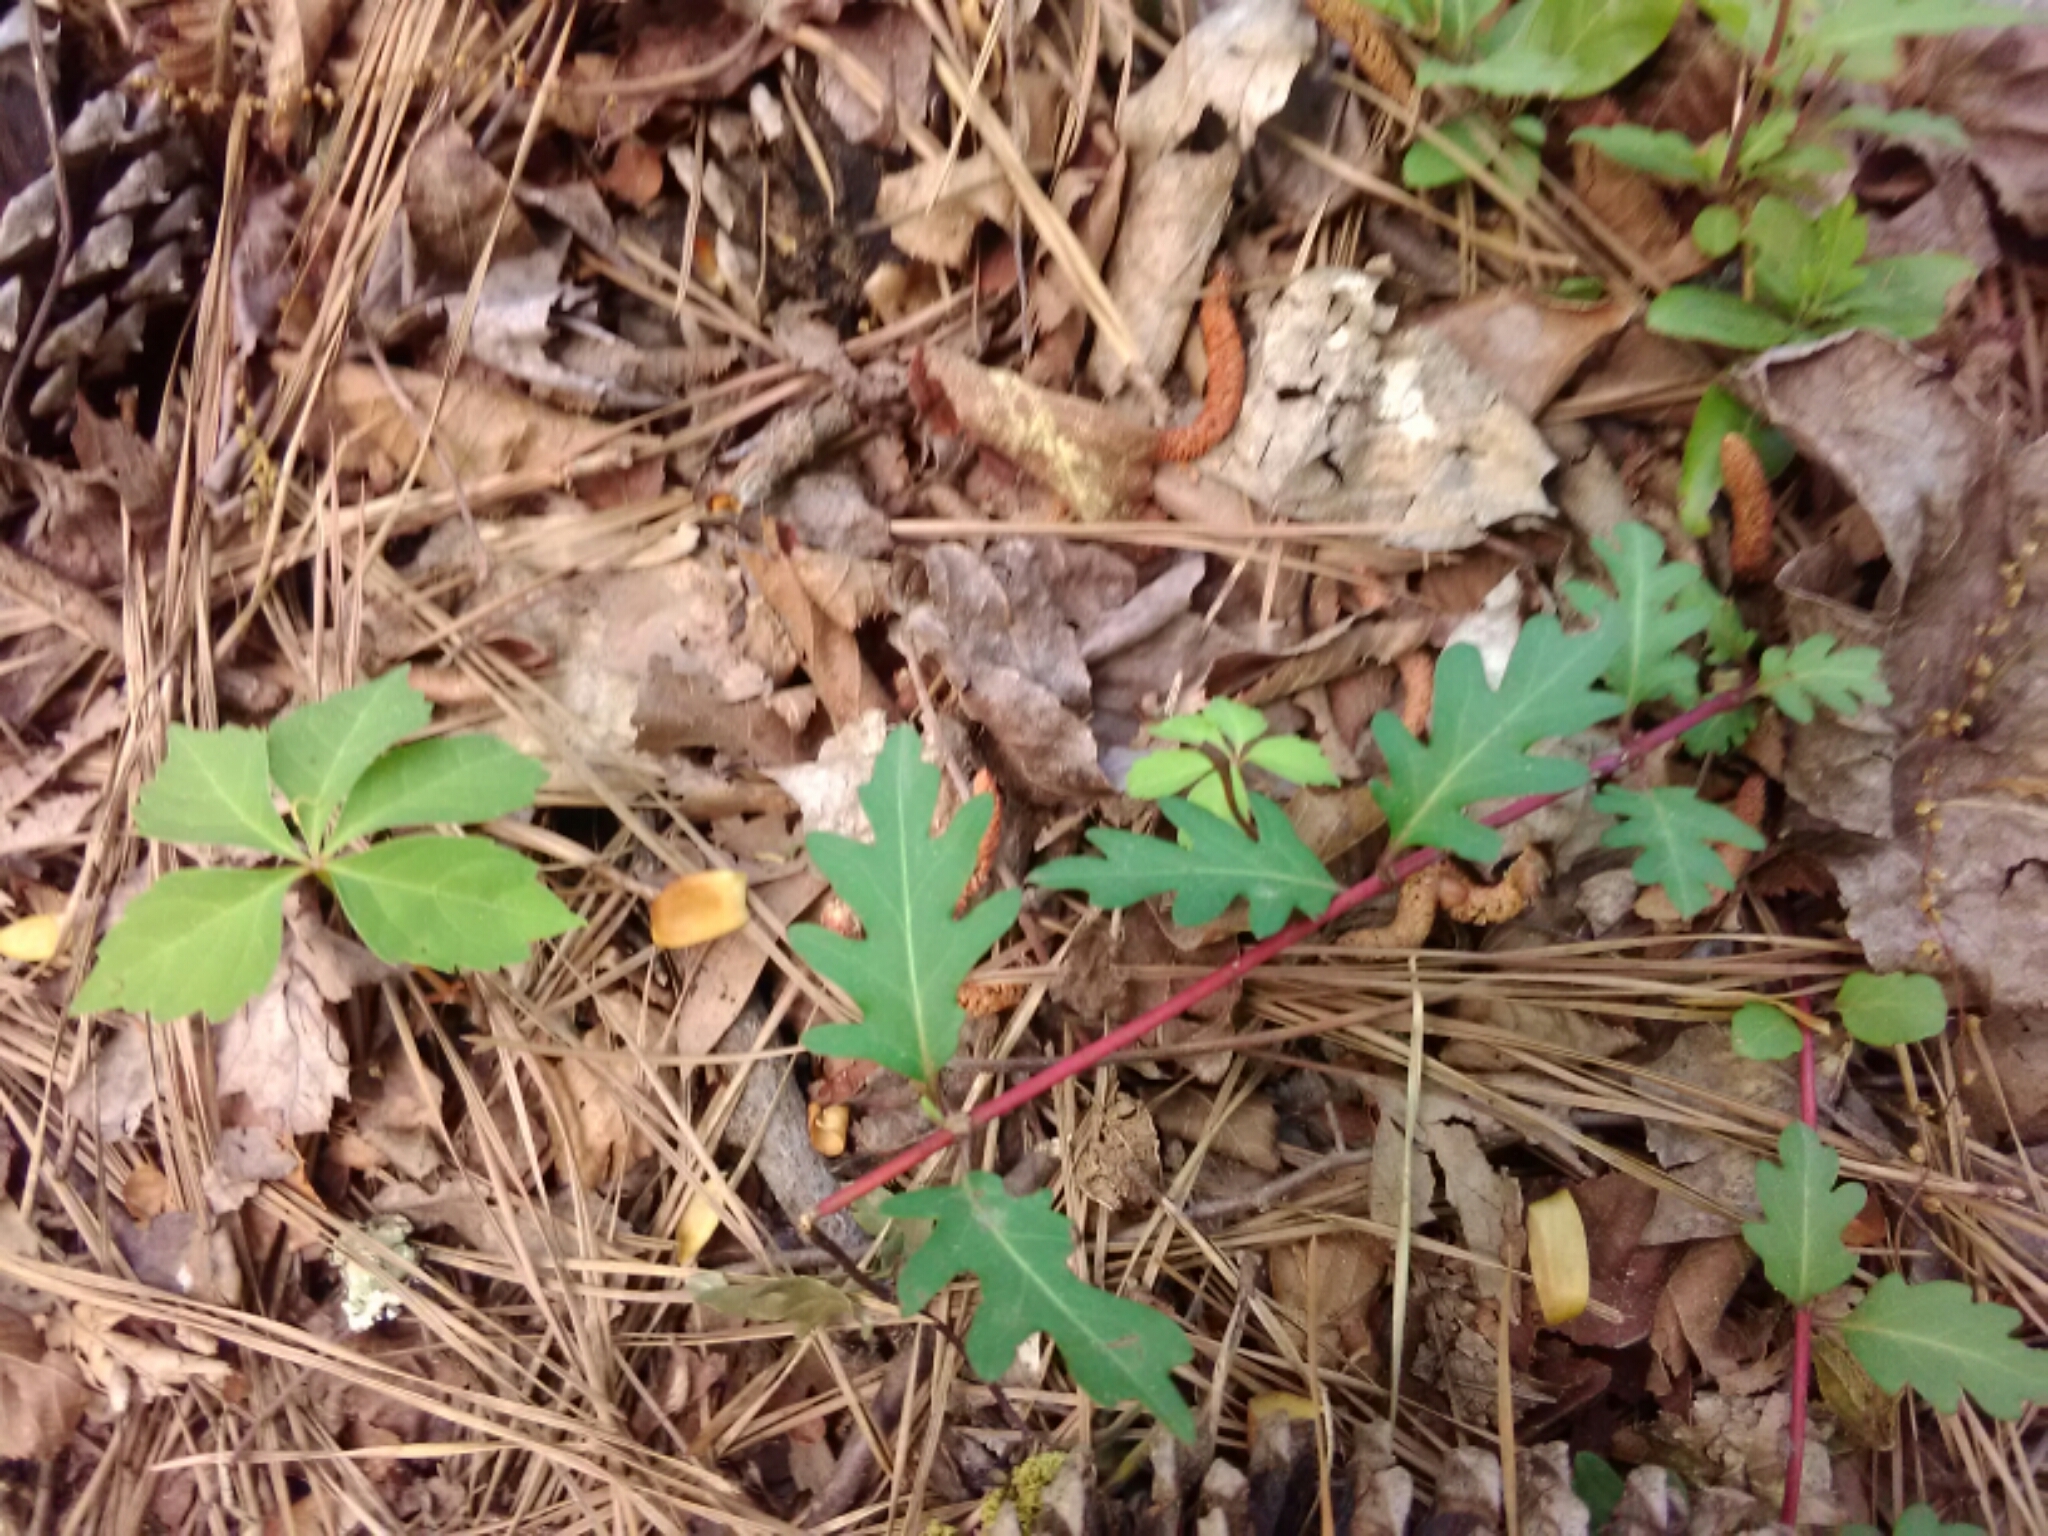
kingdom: Plantae
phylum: Tracheophyta
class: Magnoliopsida
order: Dipsacales
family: Caprifoliaceae
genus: Lonicera
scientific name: Lonicera japonica
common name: Japanese honeysuckle
